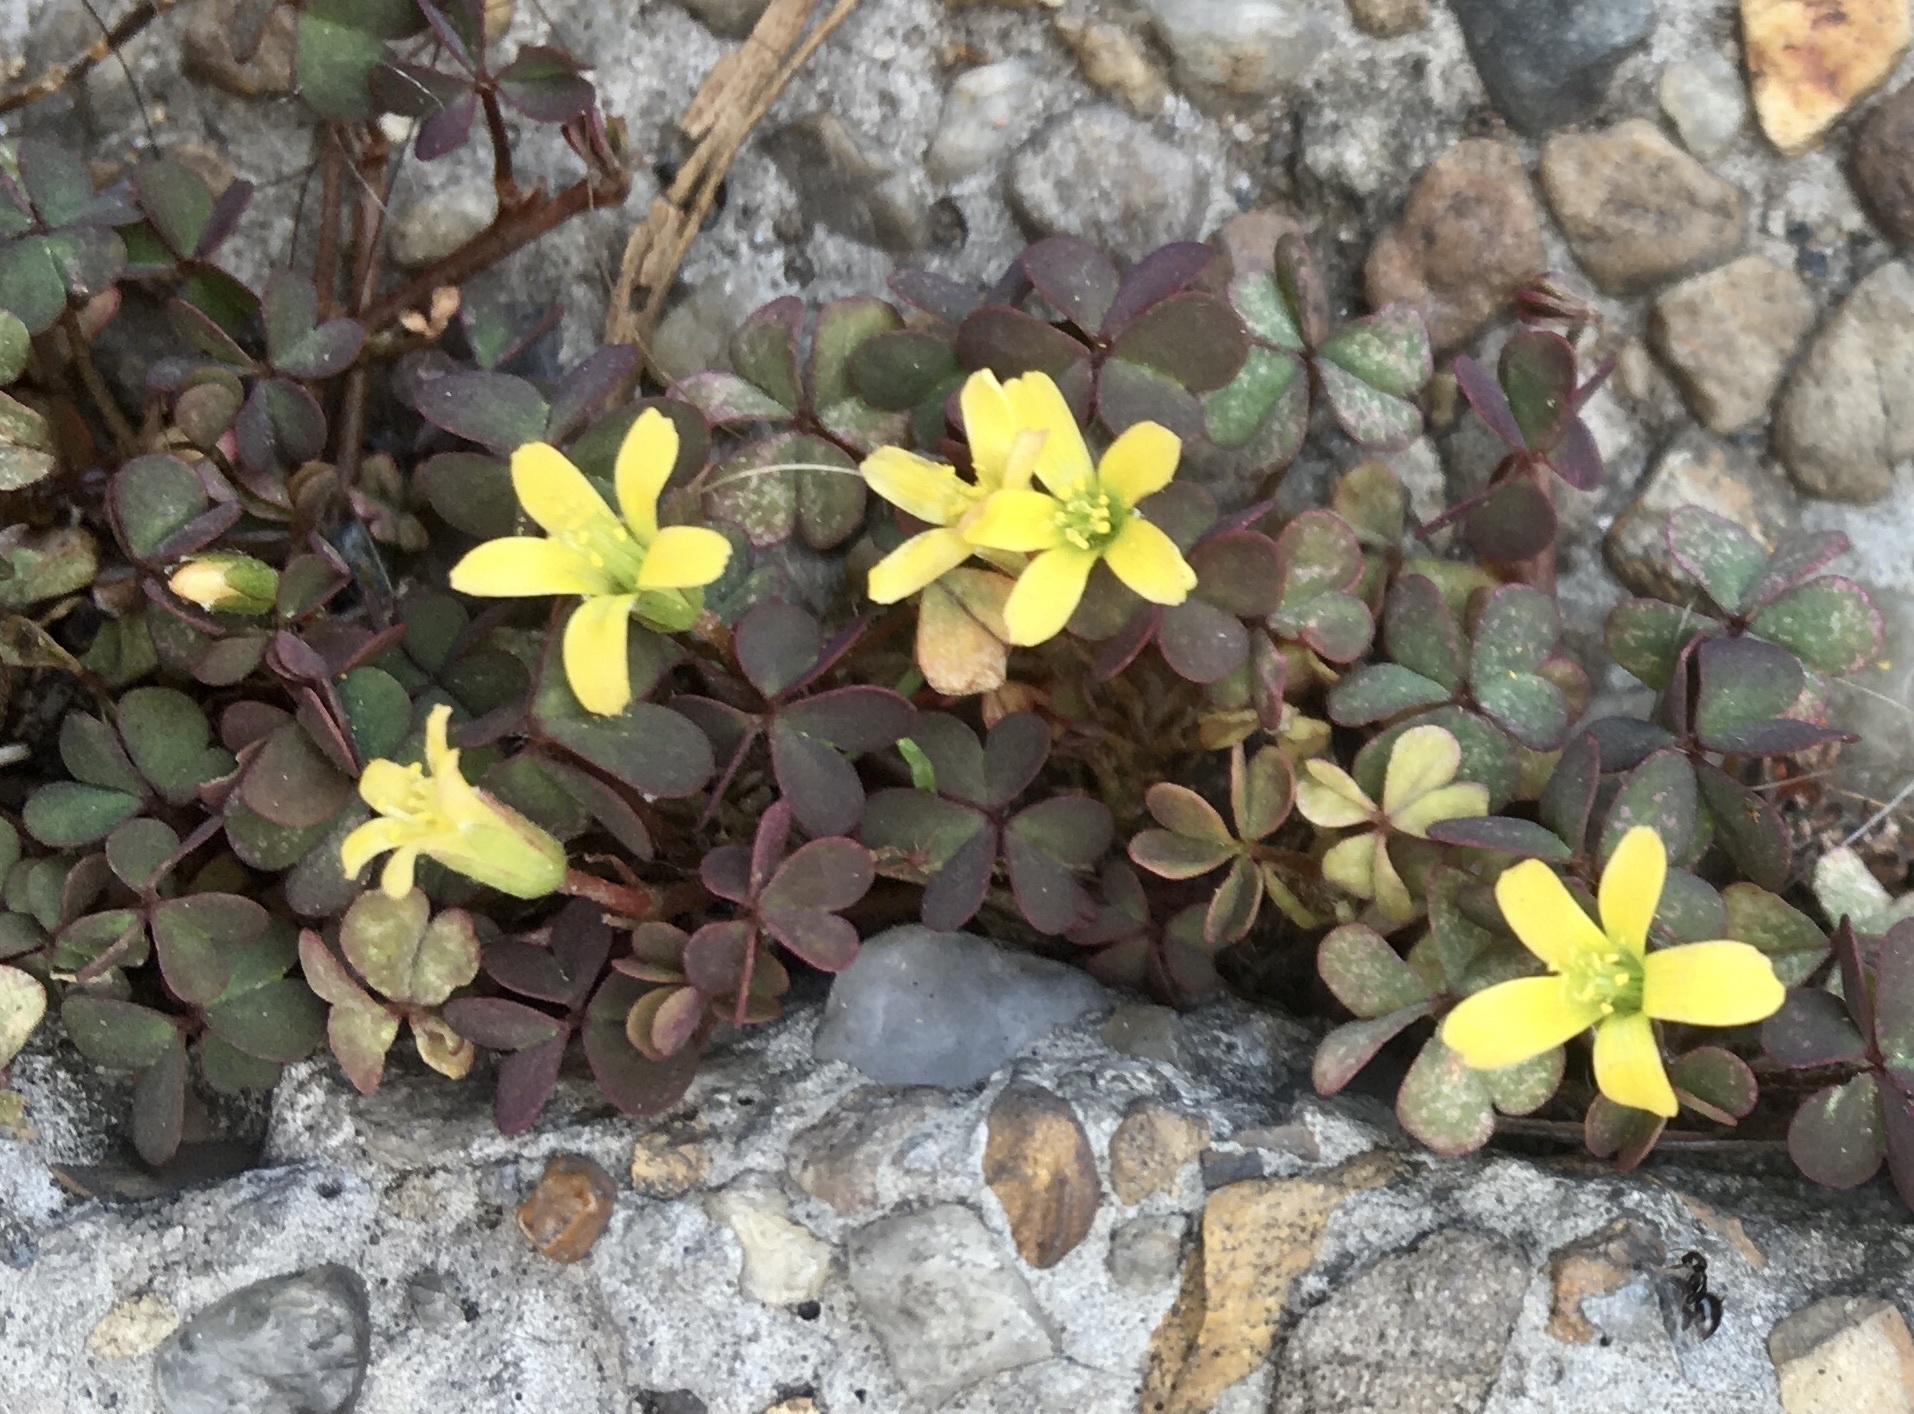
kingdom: Plantae
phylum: Tracheophyta
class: Magnoliopsida
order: Oxalidales
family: Oxalidaceae
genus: Oxalis
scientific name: Oxalis corniculata
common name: Procumbent yellow-sorrel
